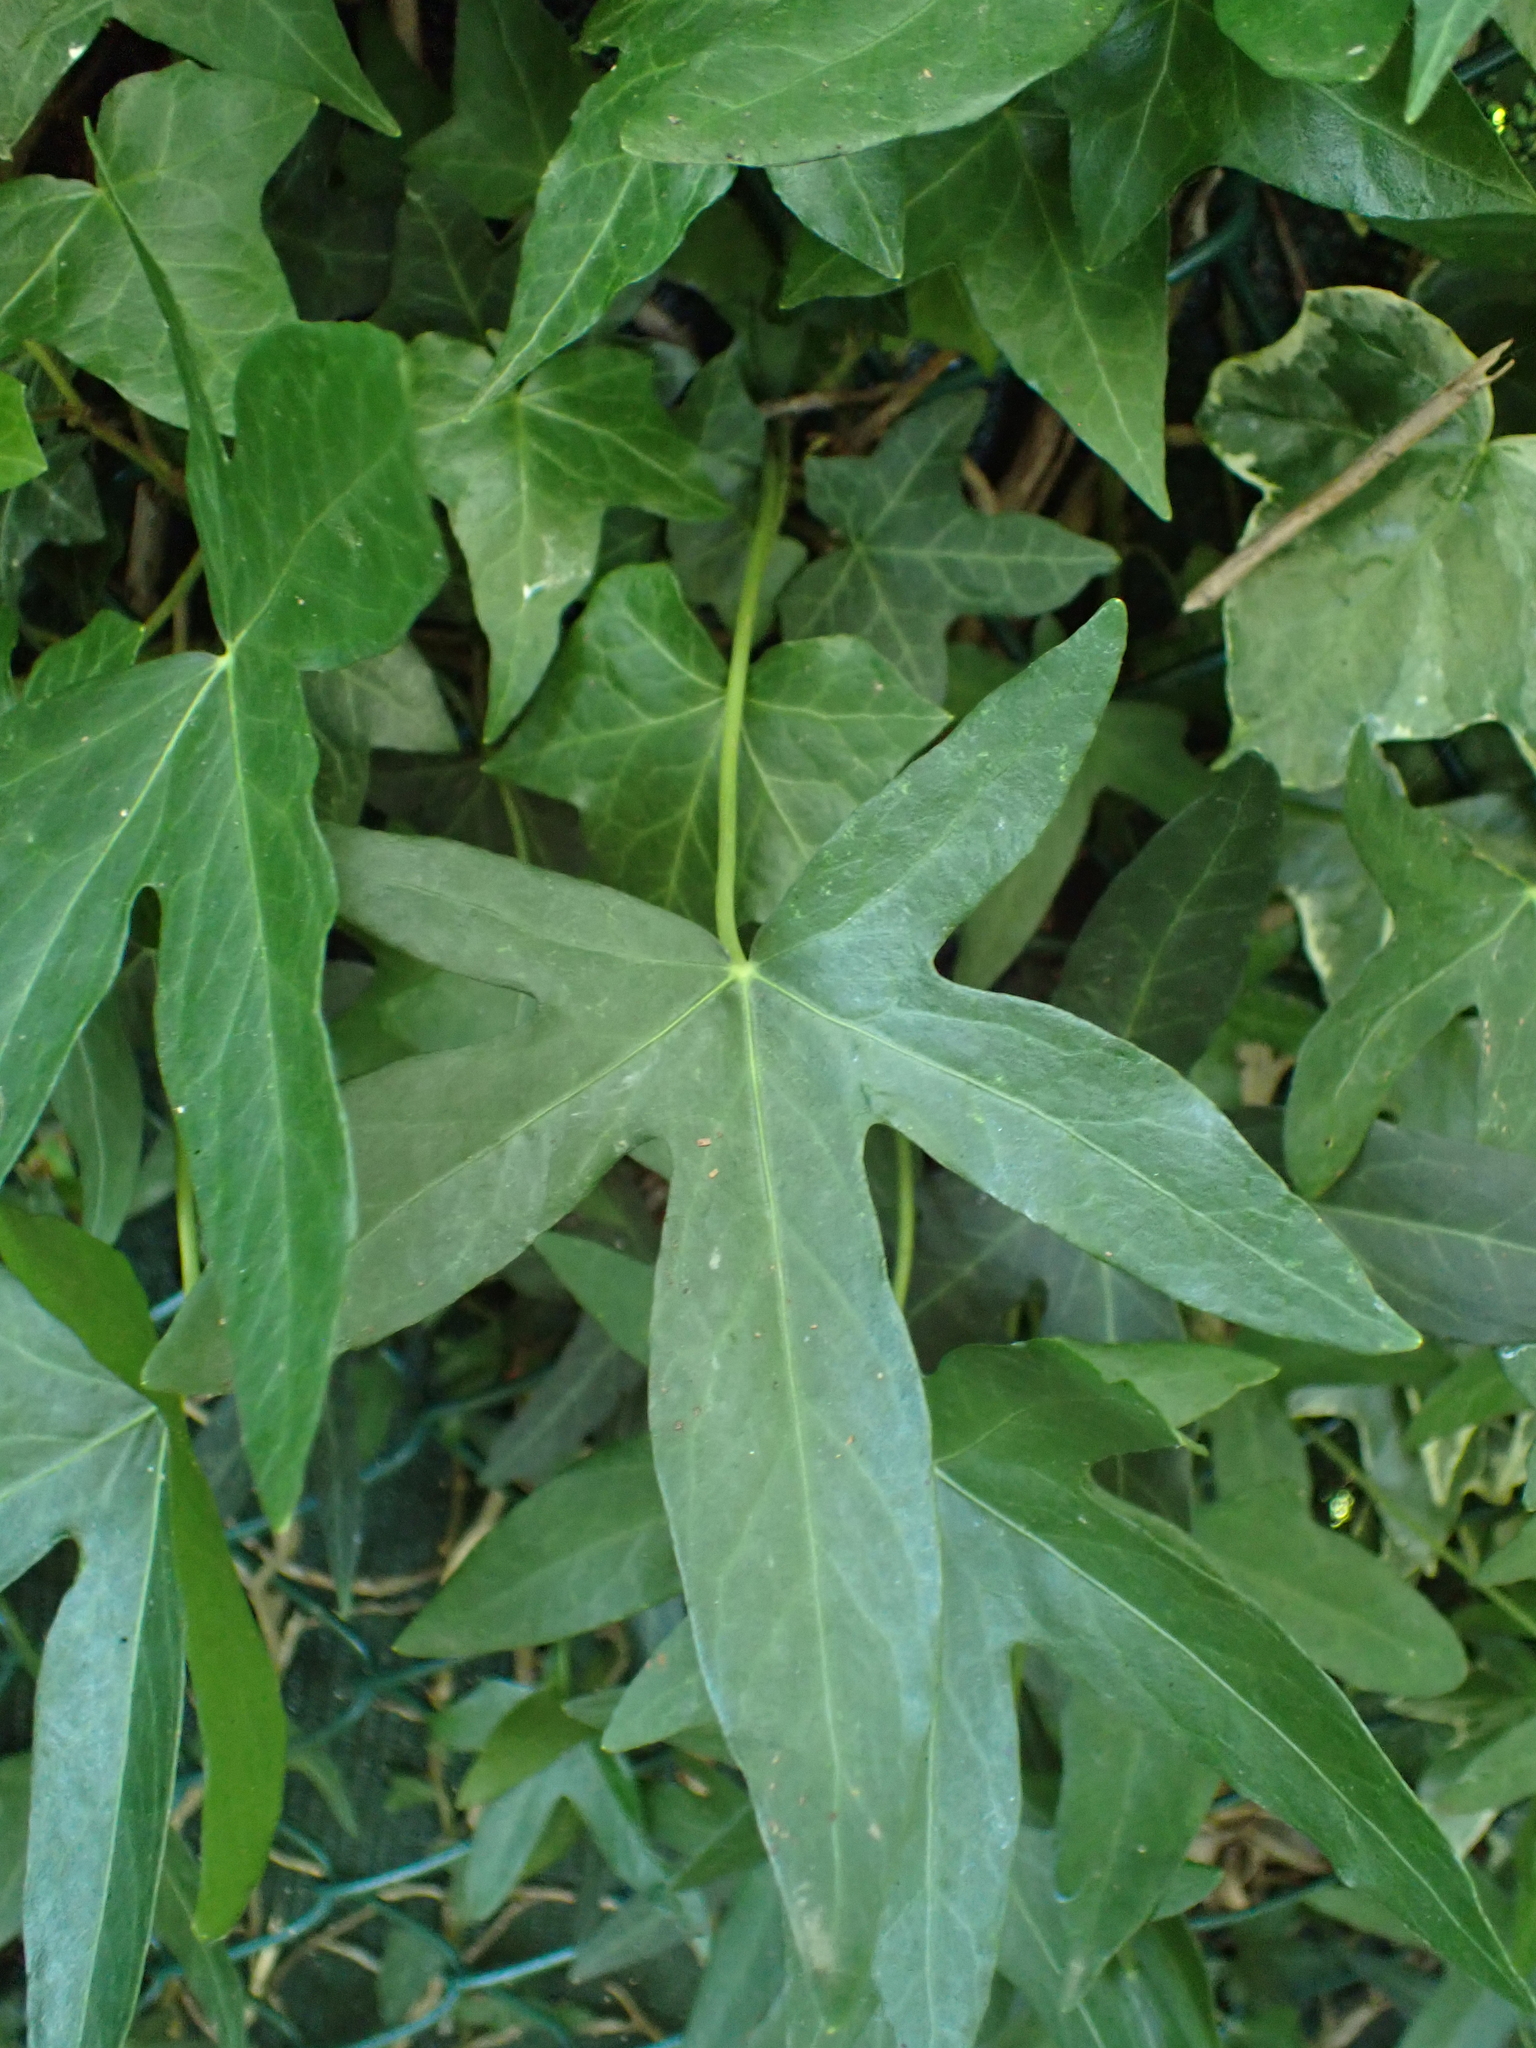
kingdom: Plantae
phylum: Tracheophyta
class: Magnoliopsida
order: Apiales
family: Araliaceae
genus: Hedera
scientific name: Hedera helix
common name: Ivy
